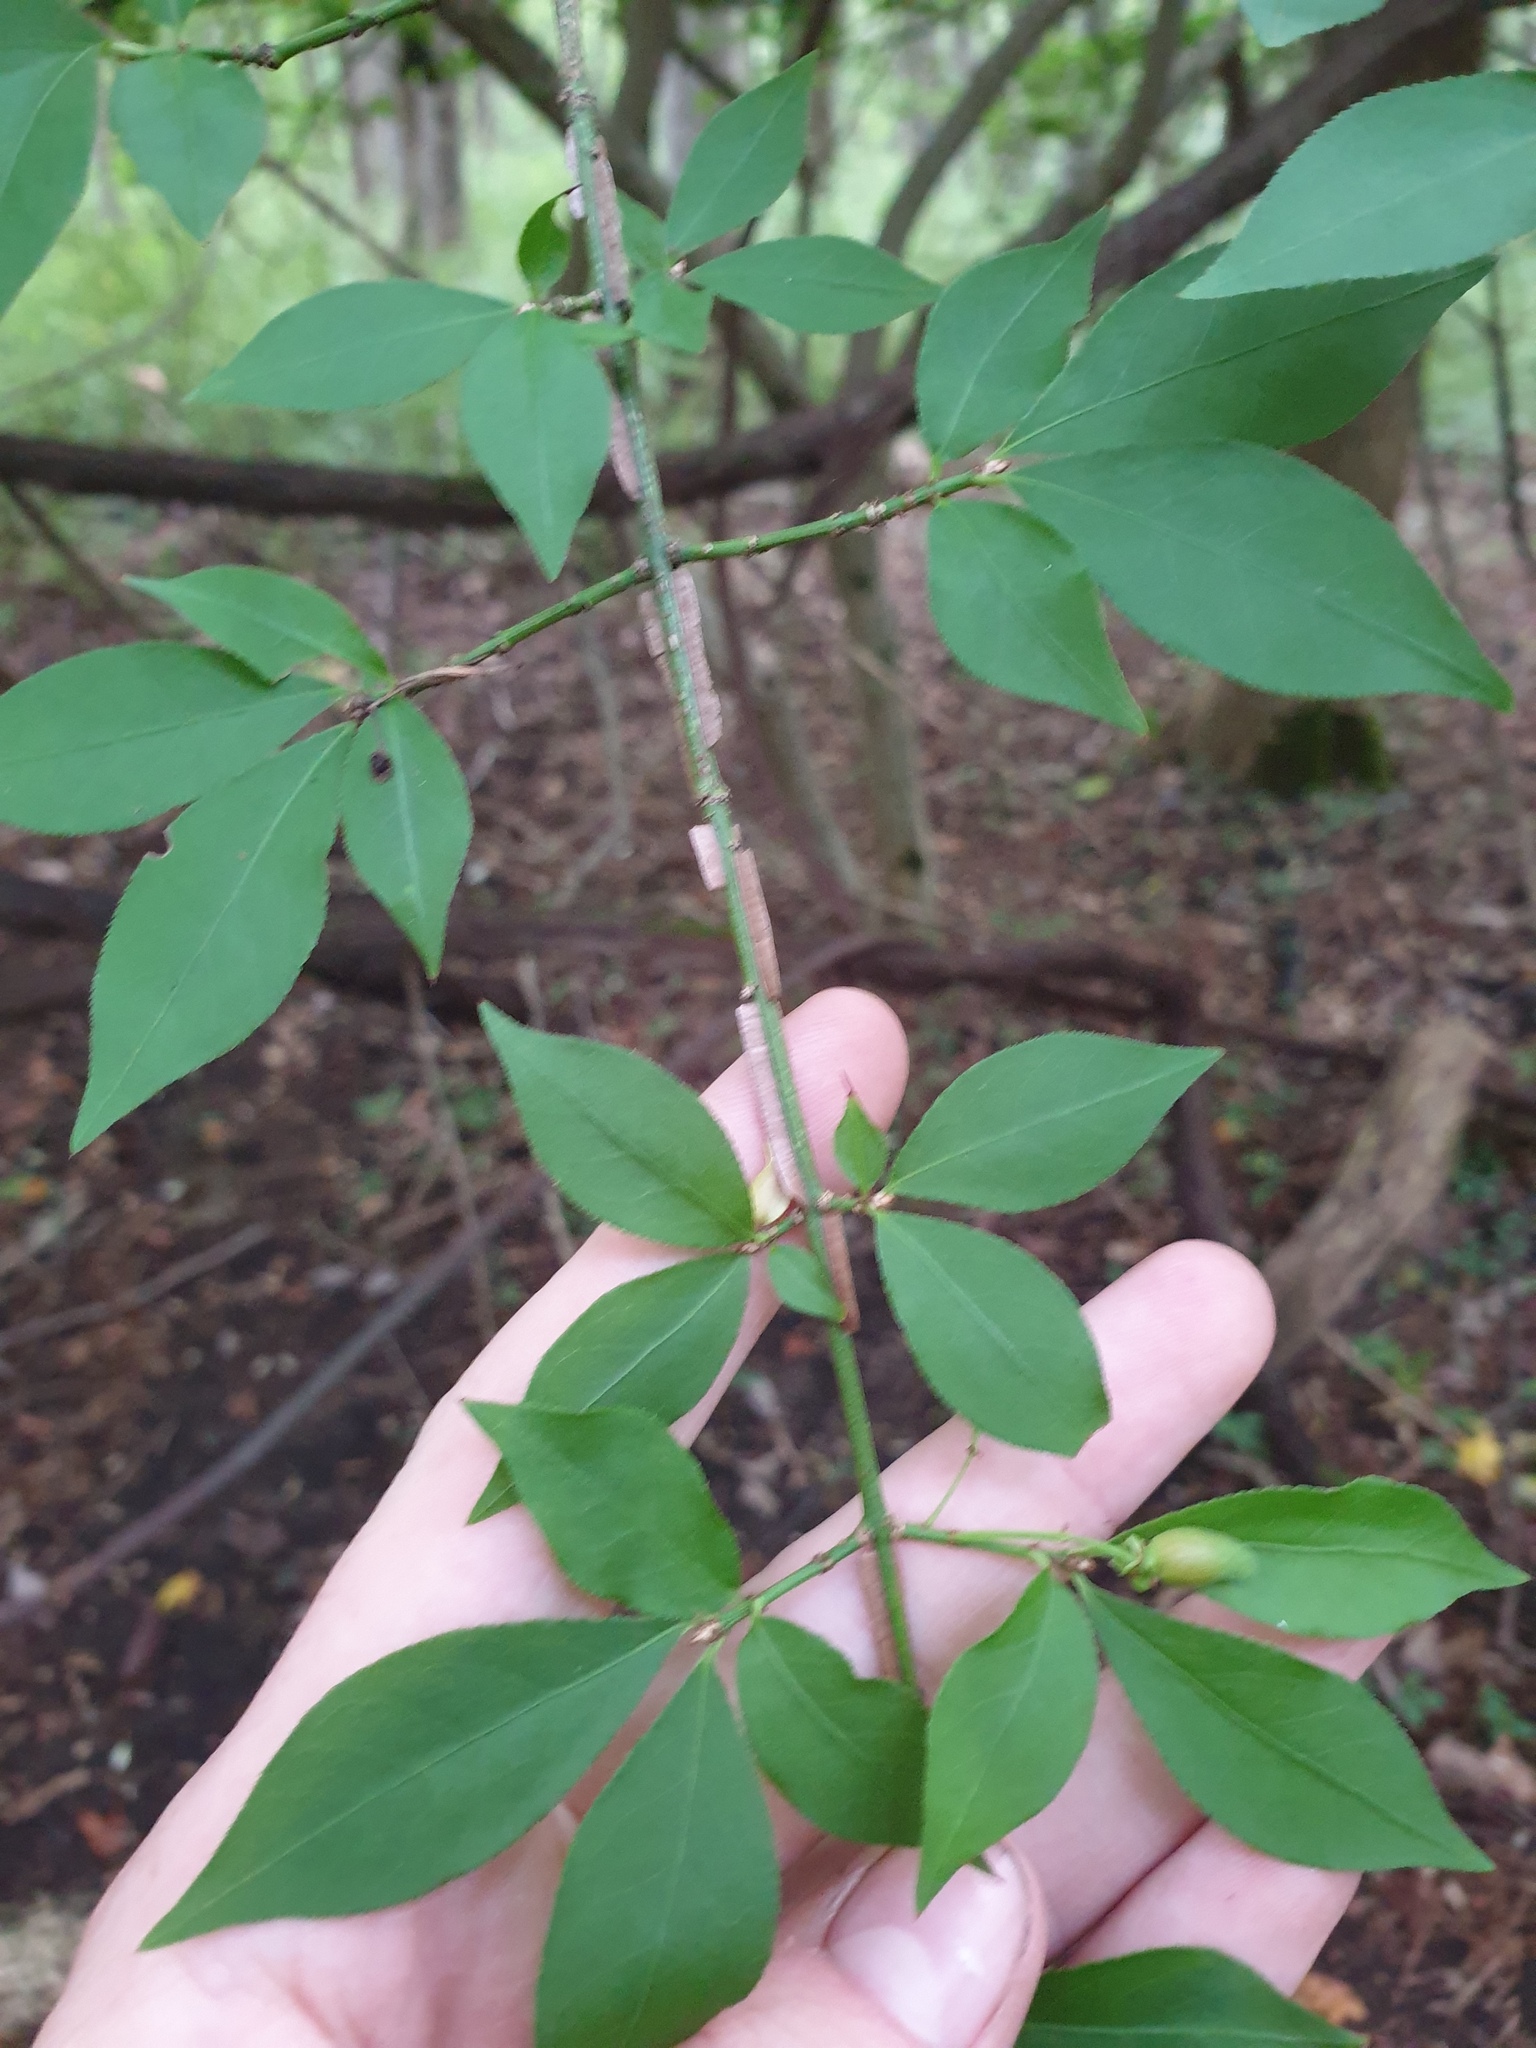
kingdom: Plantae
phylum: Tracheophyta
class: Magnoliopsida
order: Celastrales
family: Celastraceae
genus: Euonymus
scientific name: Euonymus alatus
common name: Winged euonymus
